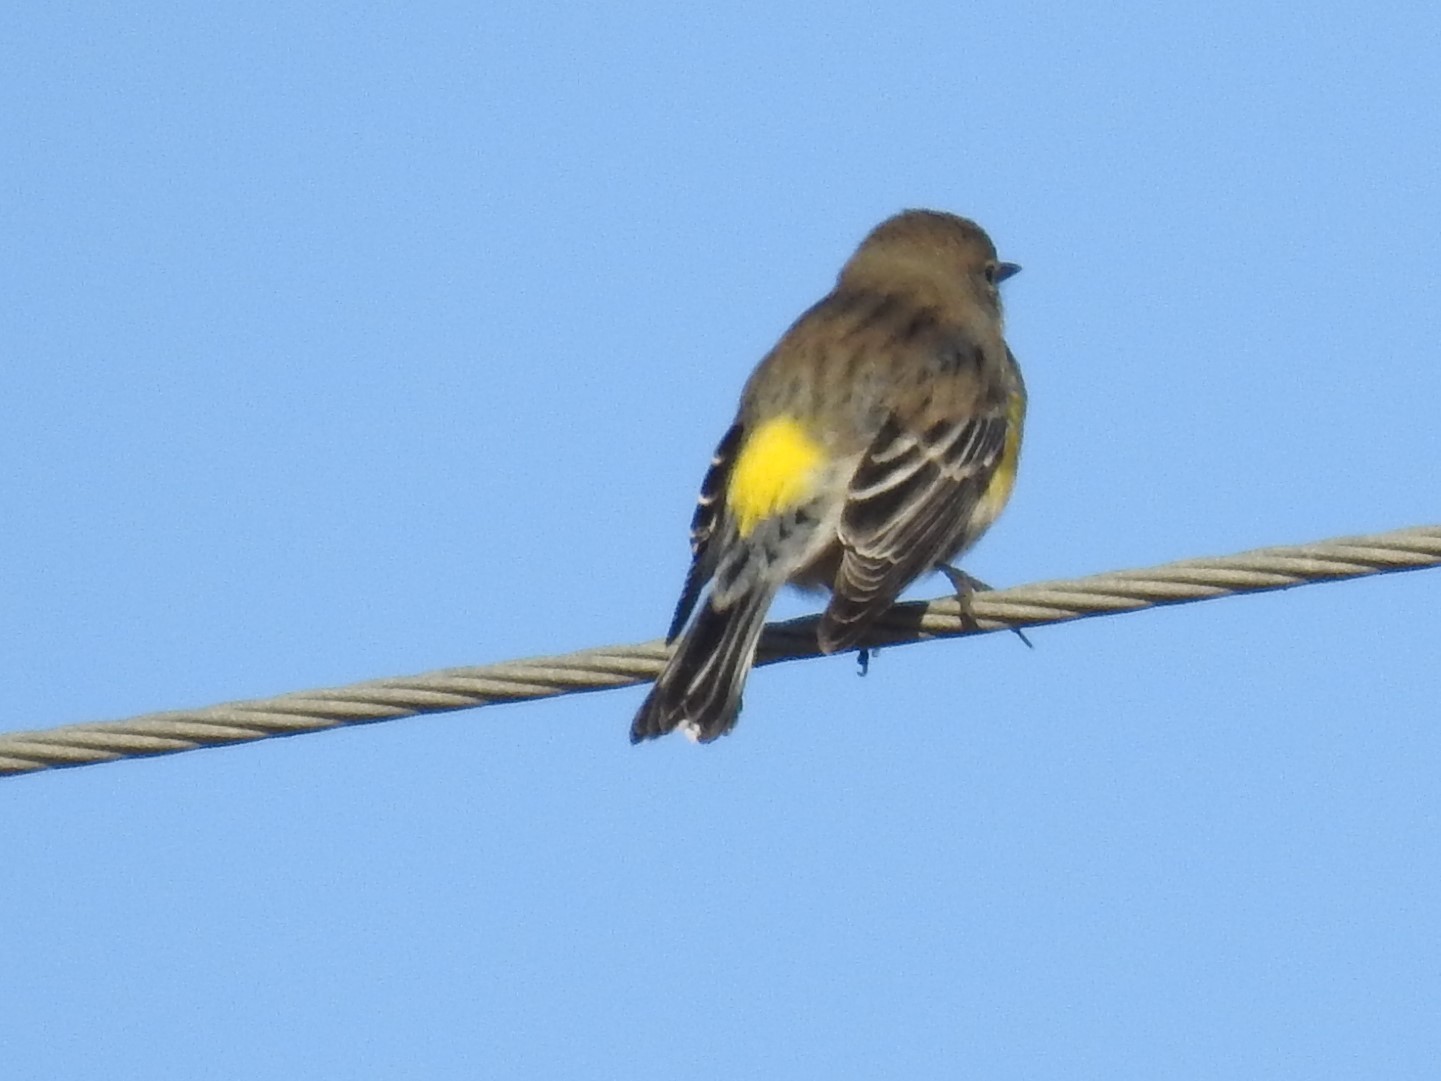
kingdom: Animalia
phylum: Chordata
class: Aves
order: Passeriformes
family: Parulidae
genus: Setophaga
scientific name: Setophaga coronata
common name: Myrtle warbler
